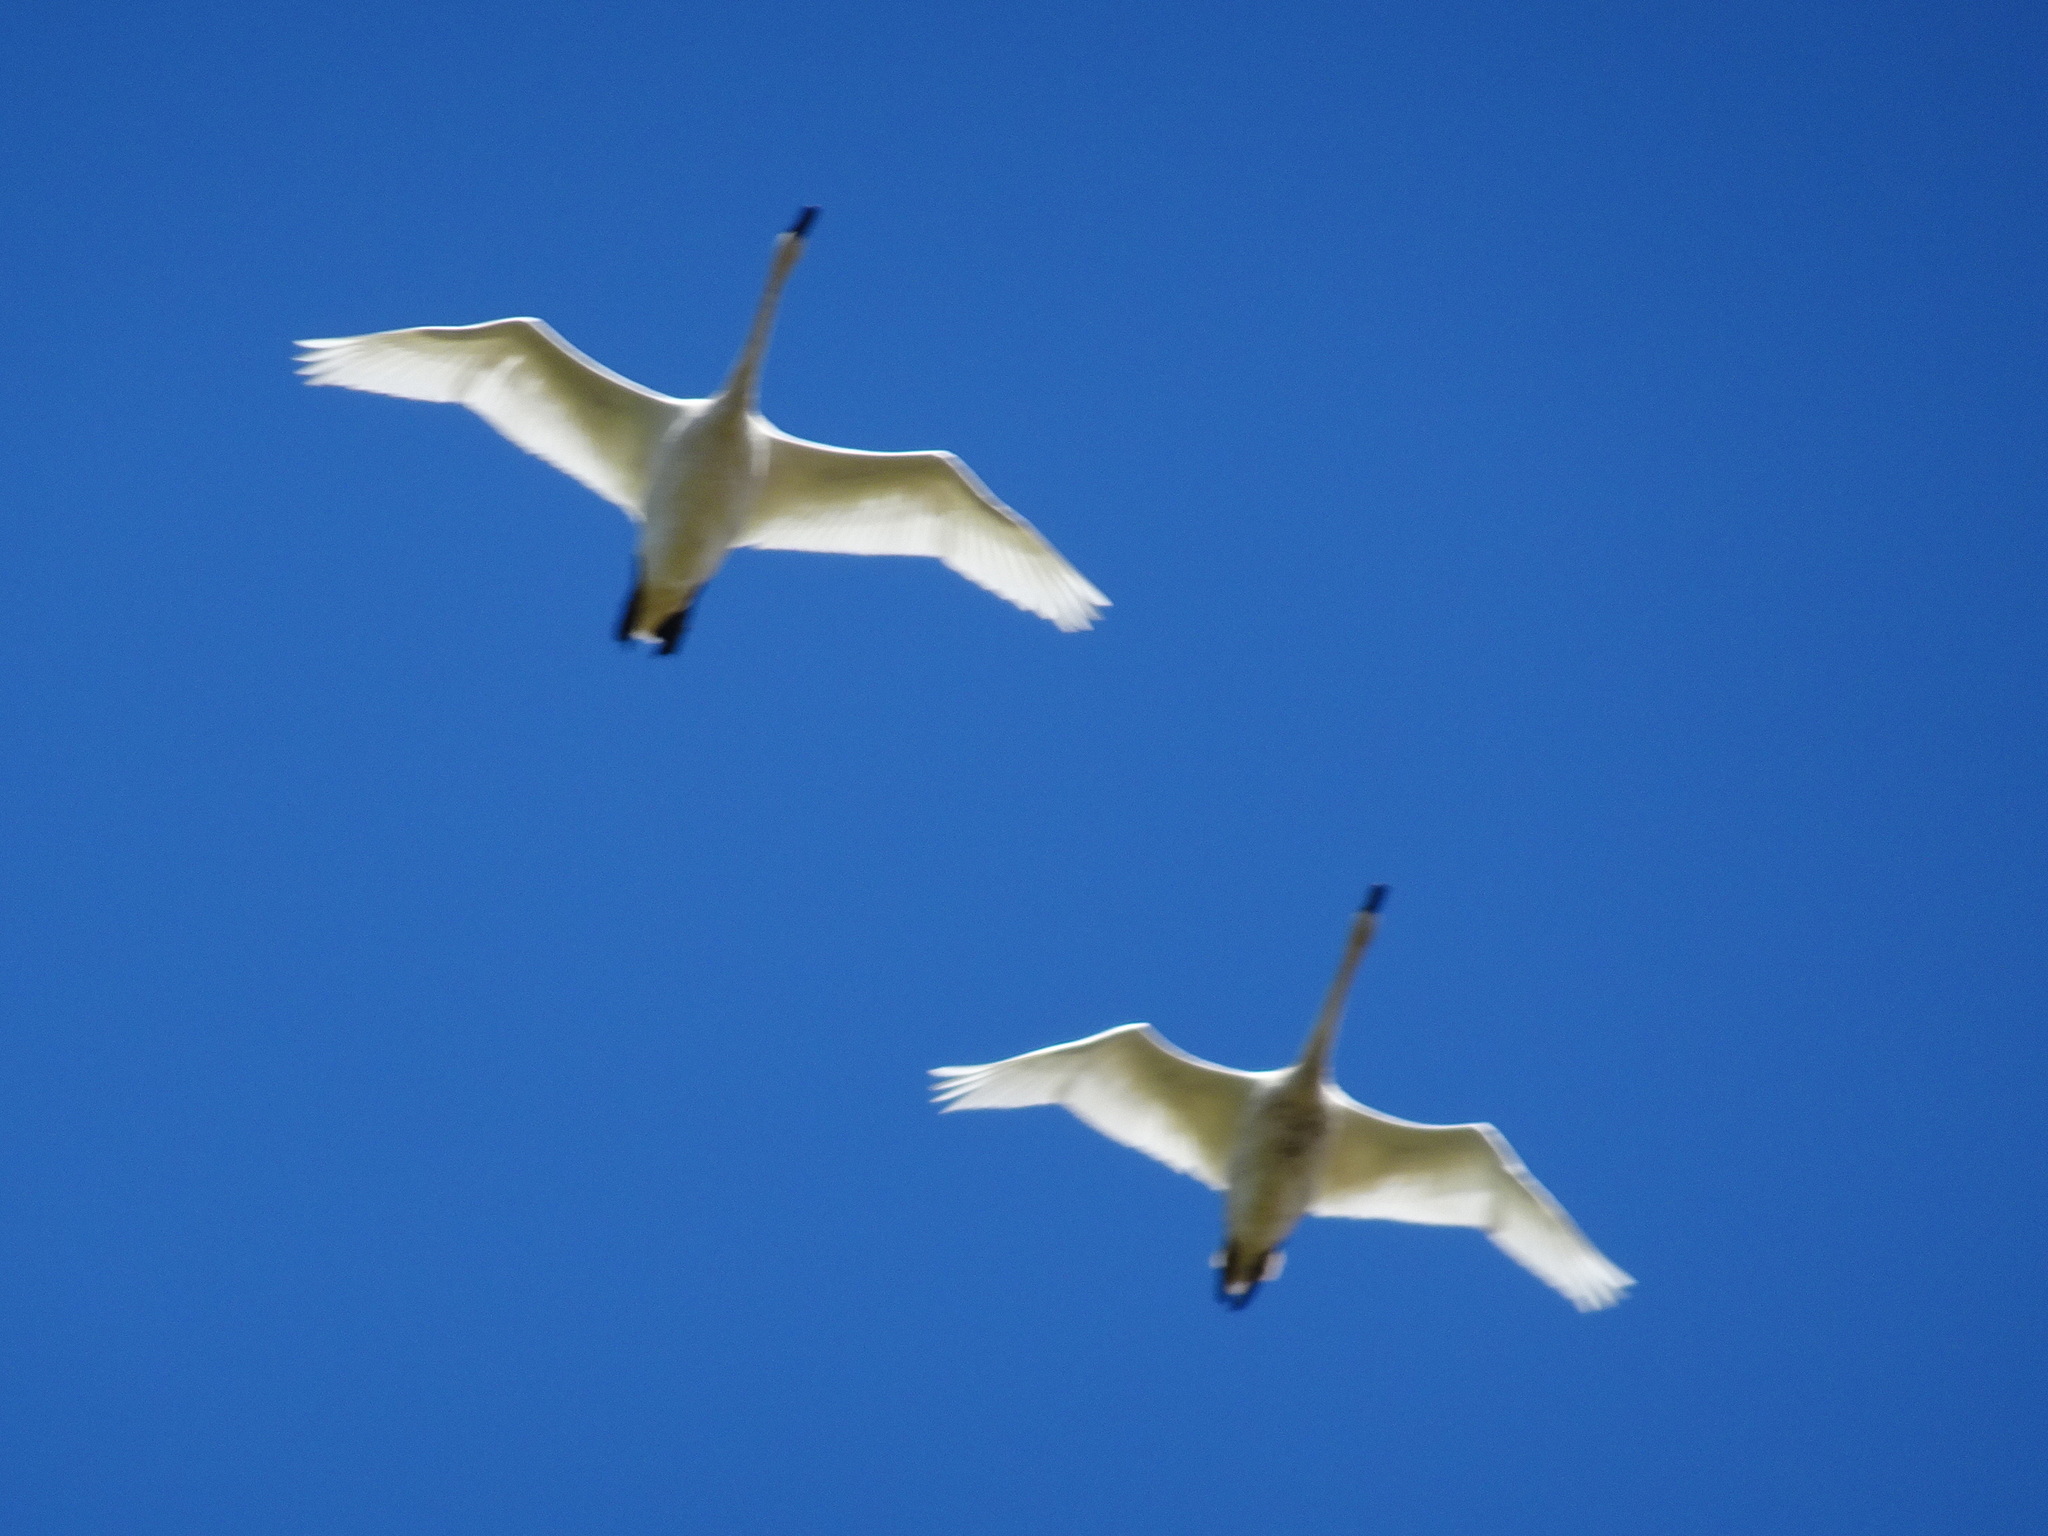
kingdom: Animalia
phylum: Chordata
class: Aves
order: Anseriformes
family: Anatidae
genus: Cygnus
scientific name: Cygnus buccinator
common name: Trumpeter swan
